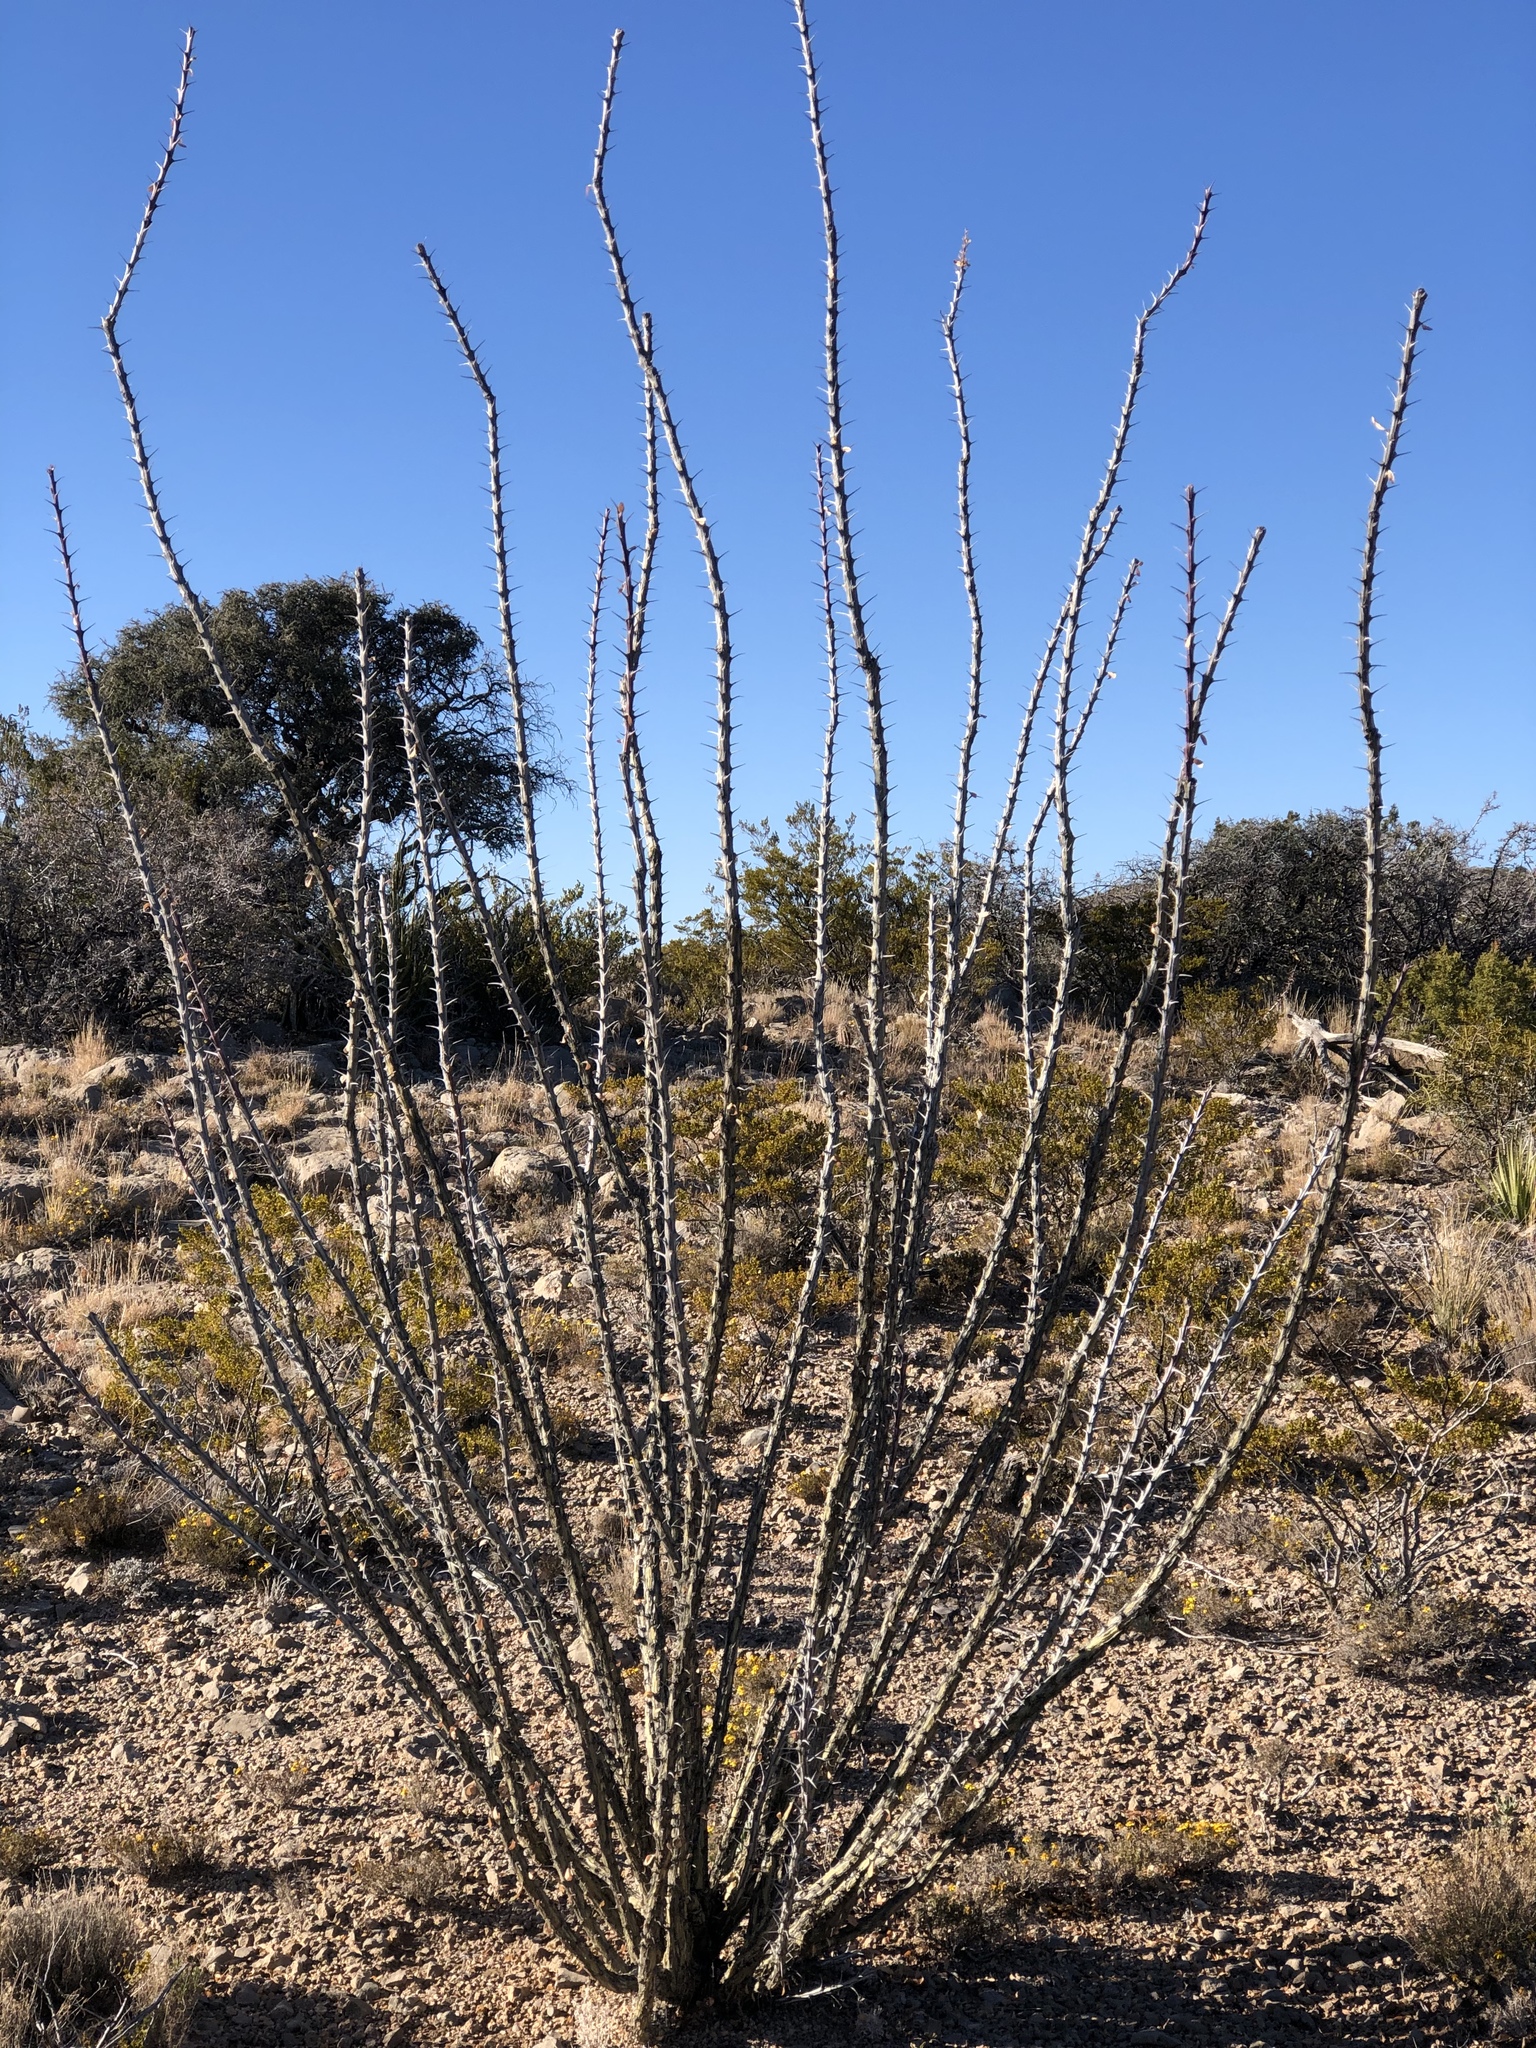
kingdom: Plantae
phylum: Tracheophyta
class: Magnoliopsida
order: Ericales
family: Fouquieriaceae
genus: Fouquieria
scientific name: Fouquieria splendens
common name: Vine-cactus
